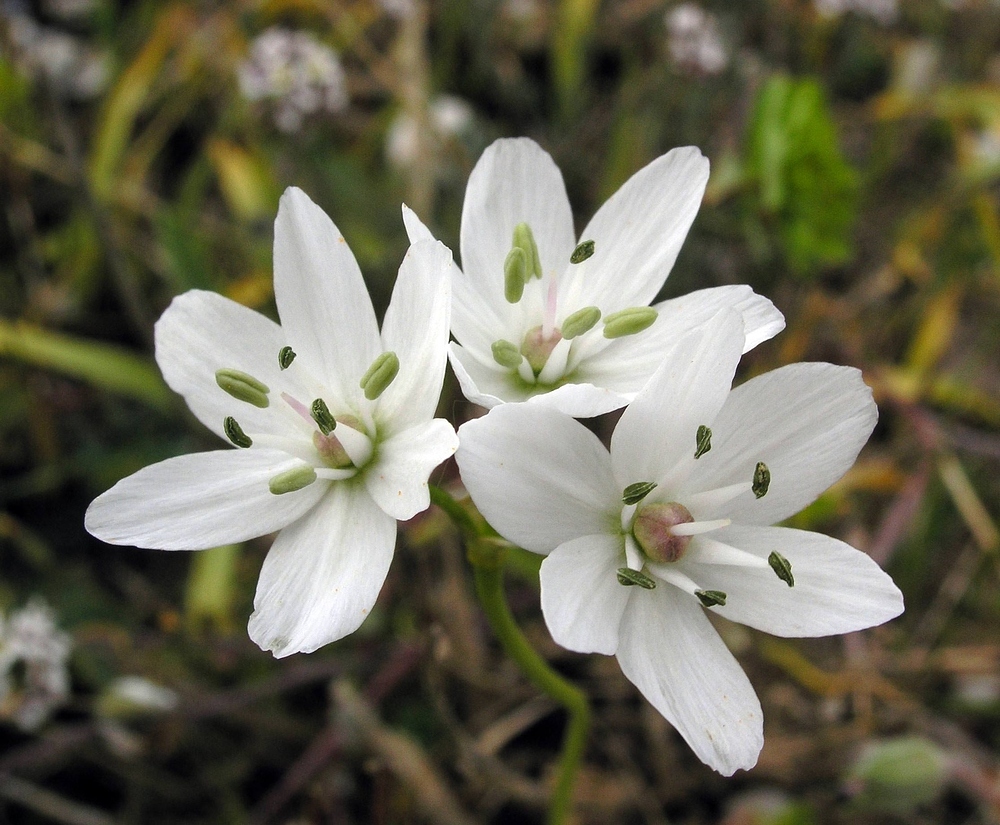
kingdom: Plantae
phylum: Tracheophyta
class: Liliopsida
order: Asparagales
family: Amaryllidaceae
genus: Allium
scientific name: Allium neapolitanum
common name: Neapolitan garlic
